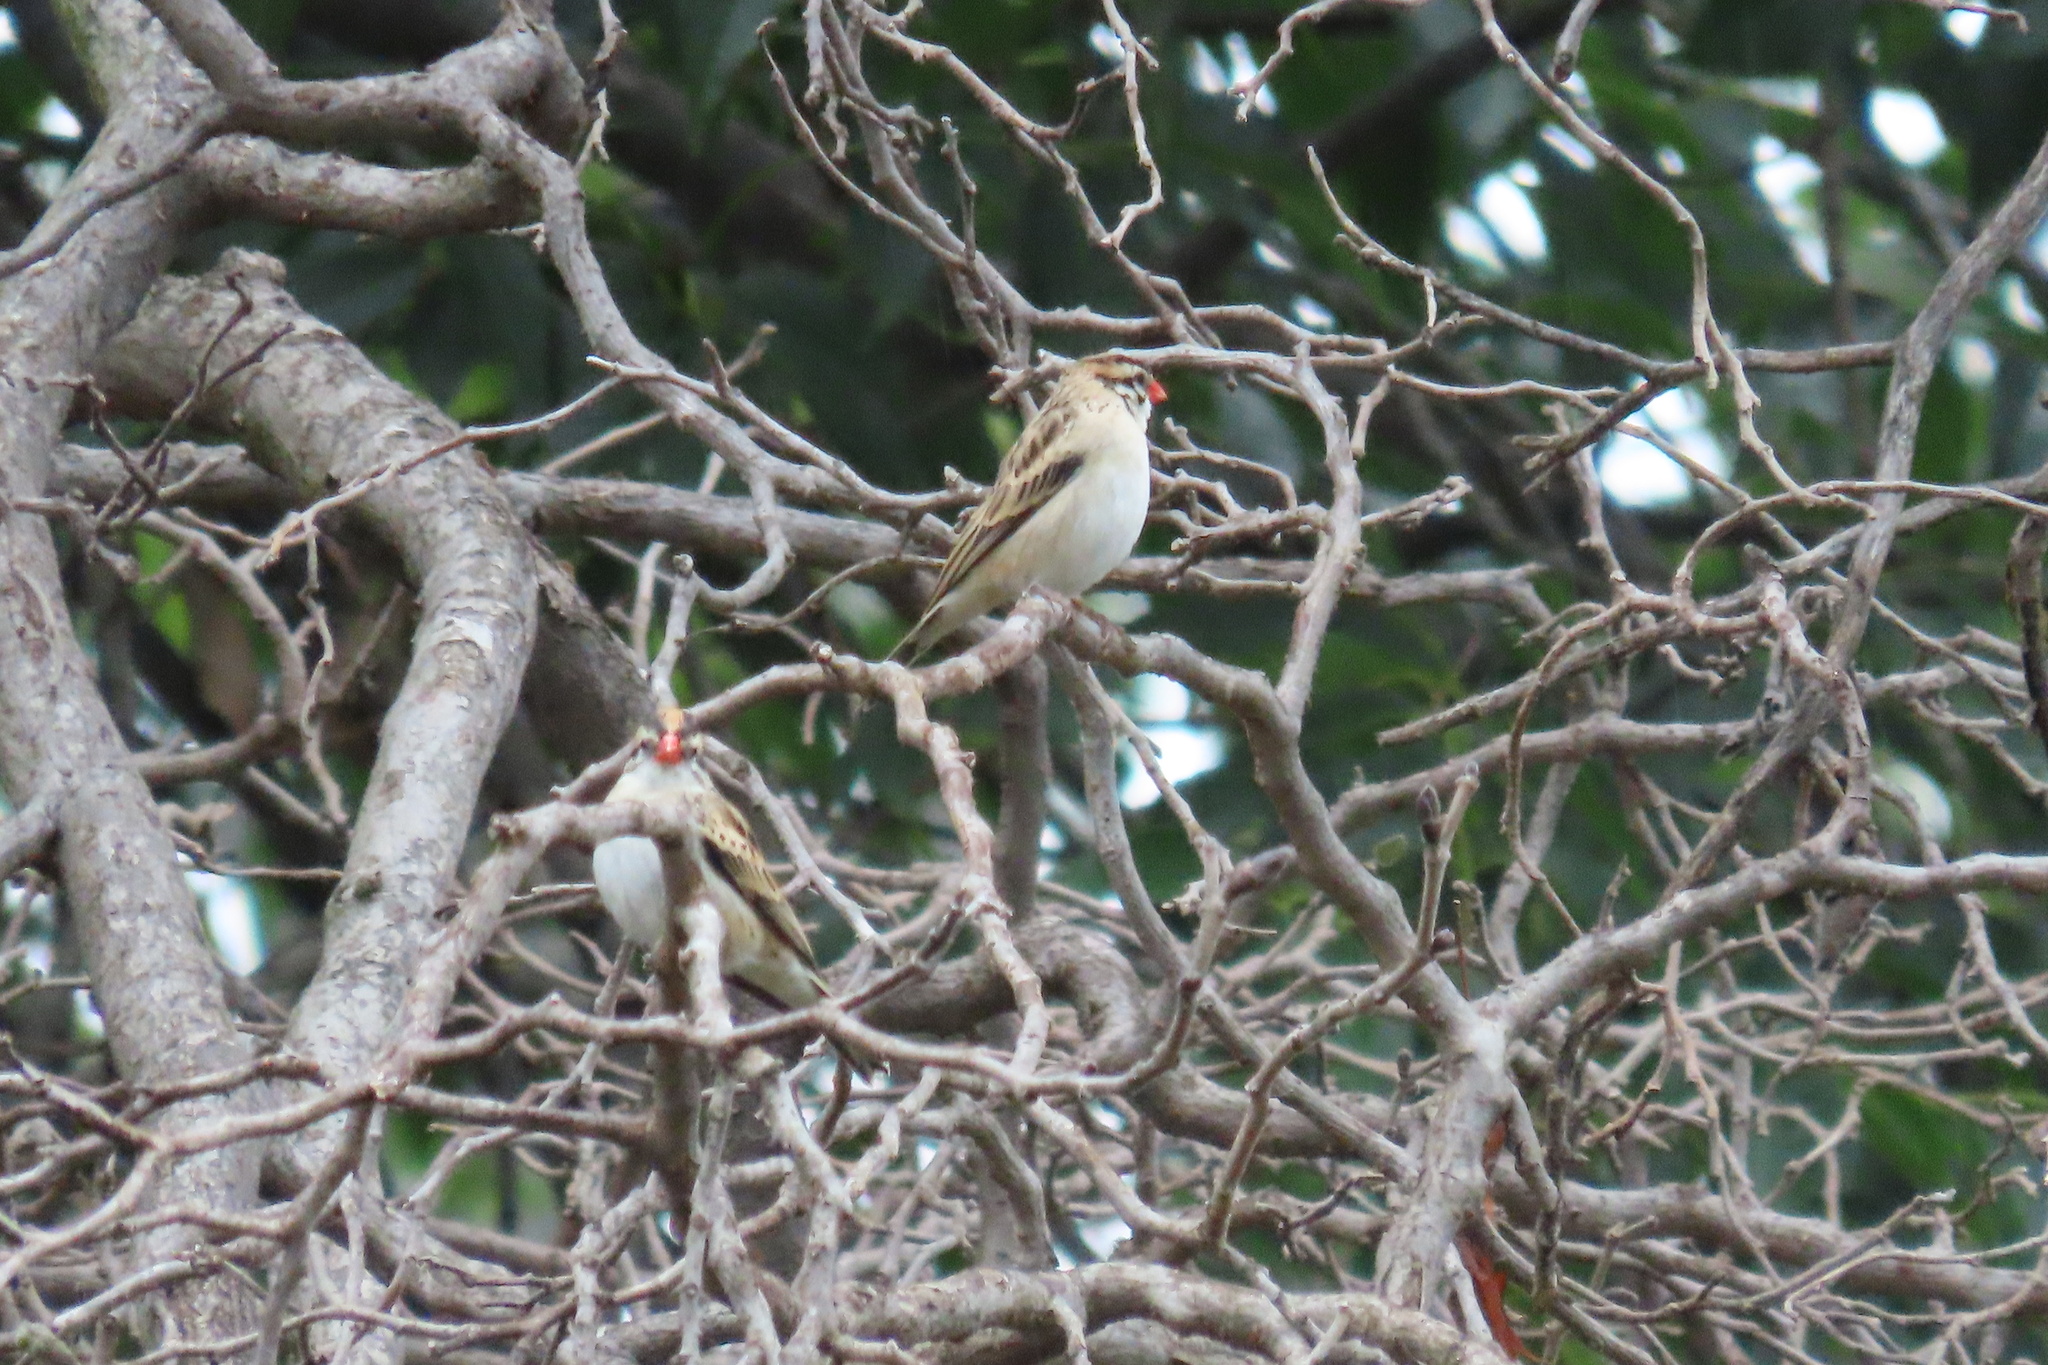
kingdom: Animalia
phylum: Chordata
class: Aves
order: Passeriformes
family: Viduidae
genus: Vidua
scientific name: Vidua macroura
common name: Pin-tailed whydah
